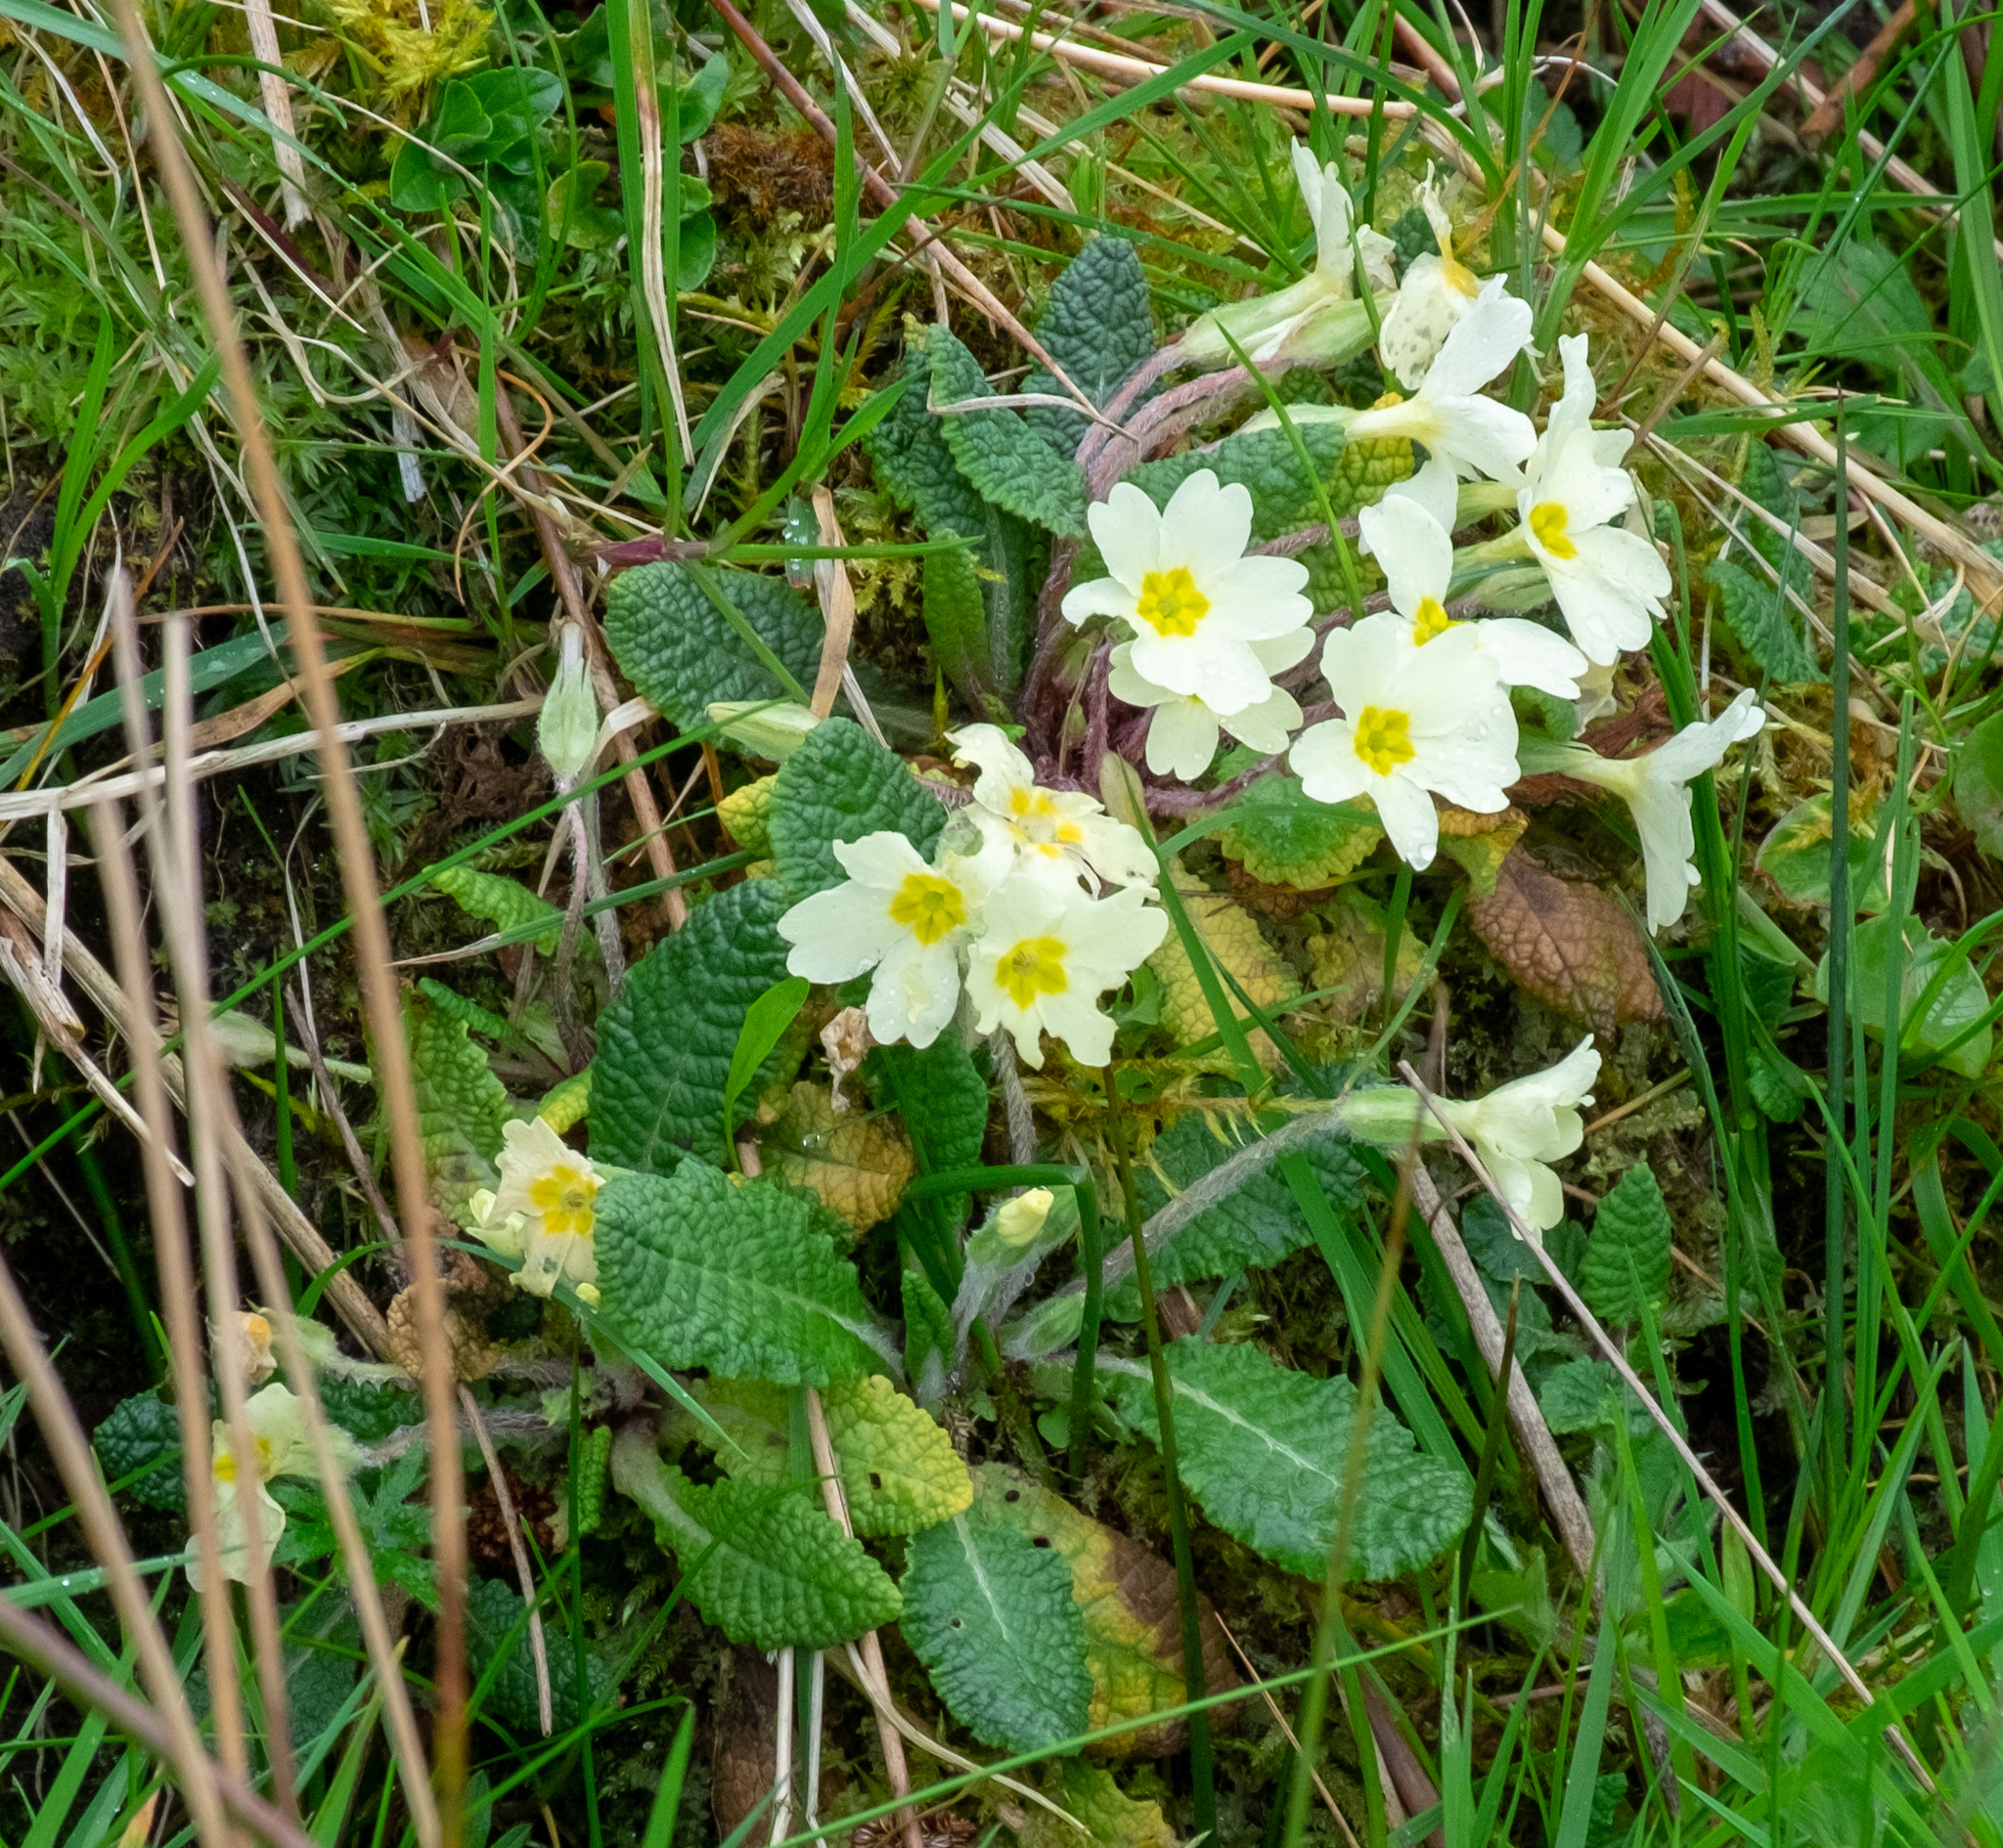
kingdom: Plantae
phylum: Tracheophyta
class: Magnoliopsida
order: Ericales
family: Primulaceae
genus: Primula
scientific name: Primula vulgaris
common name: Primrose
